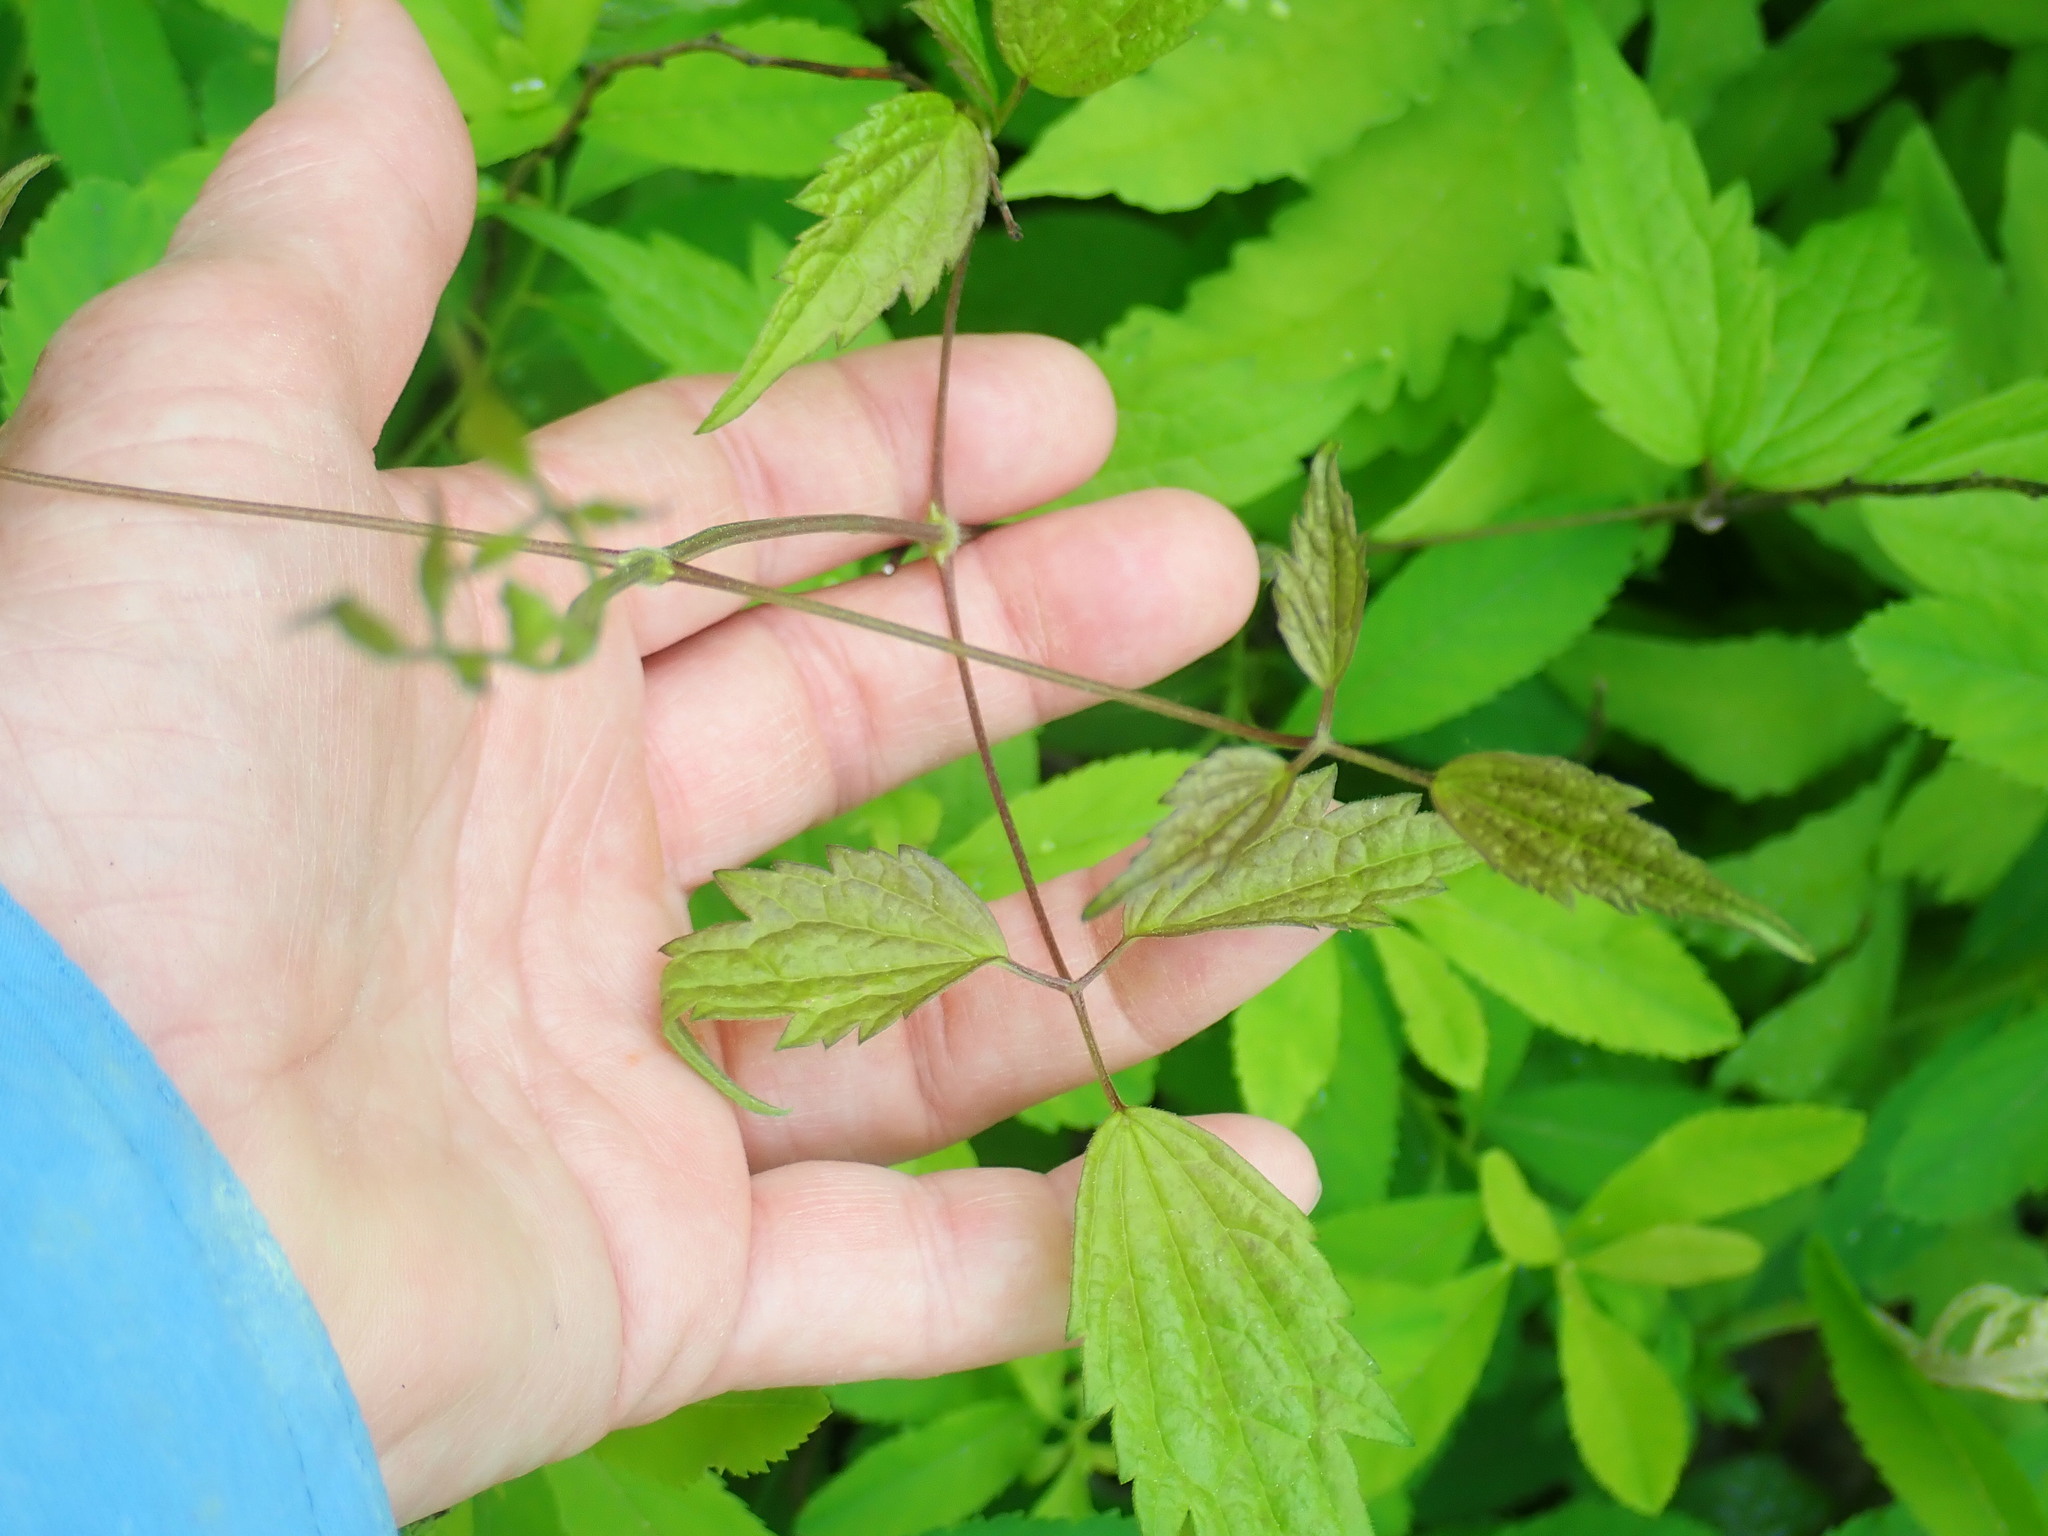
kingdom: Plantae
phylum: Tracheophyta
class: Magnoliopsida
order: Ranunculales
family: Ranunculaceae
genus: Clematis
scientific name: Clematis virginiana
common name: Virgin's-bower
